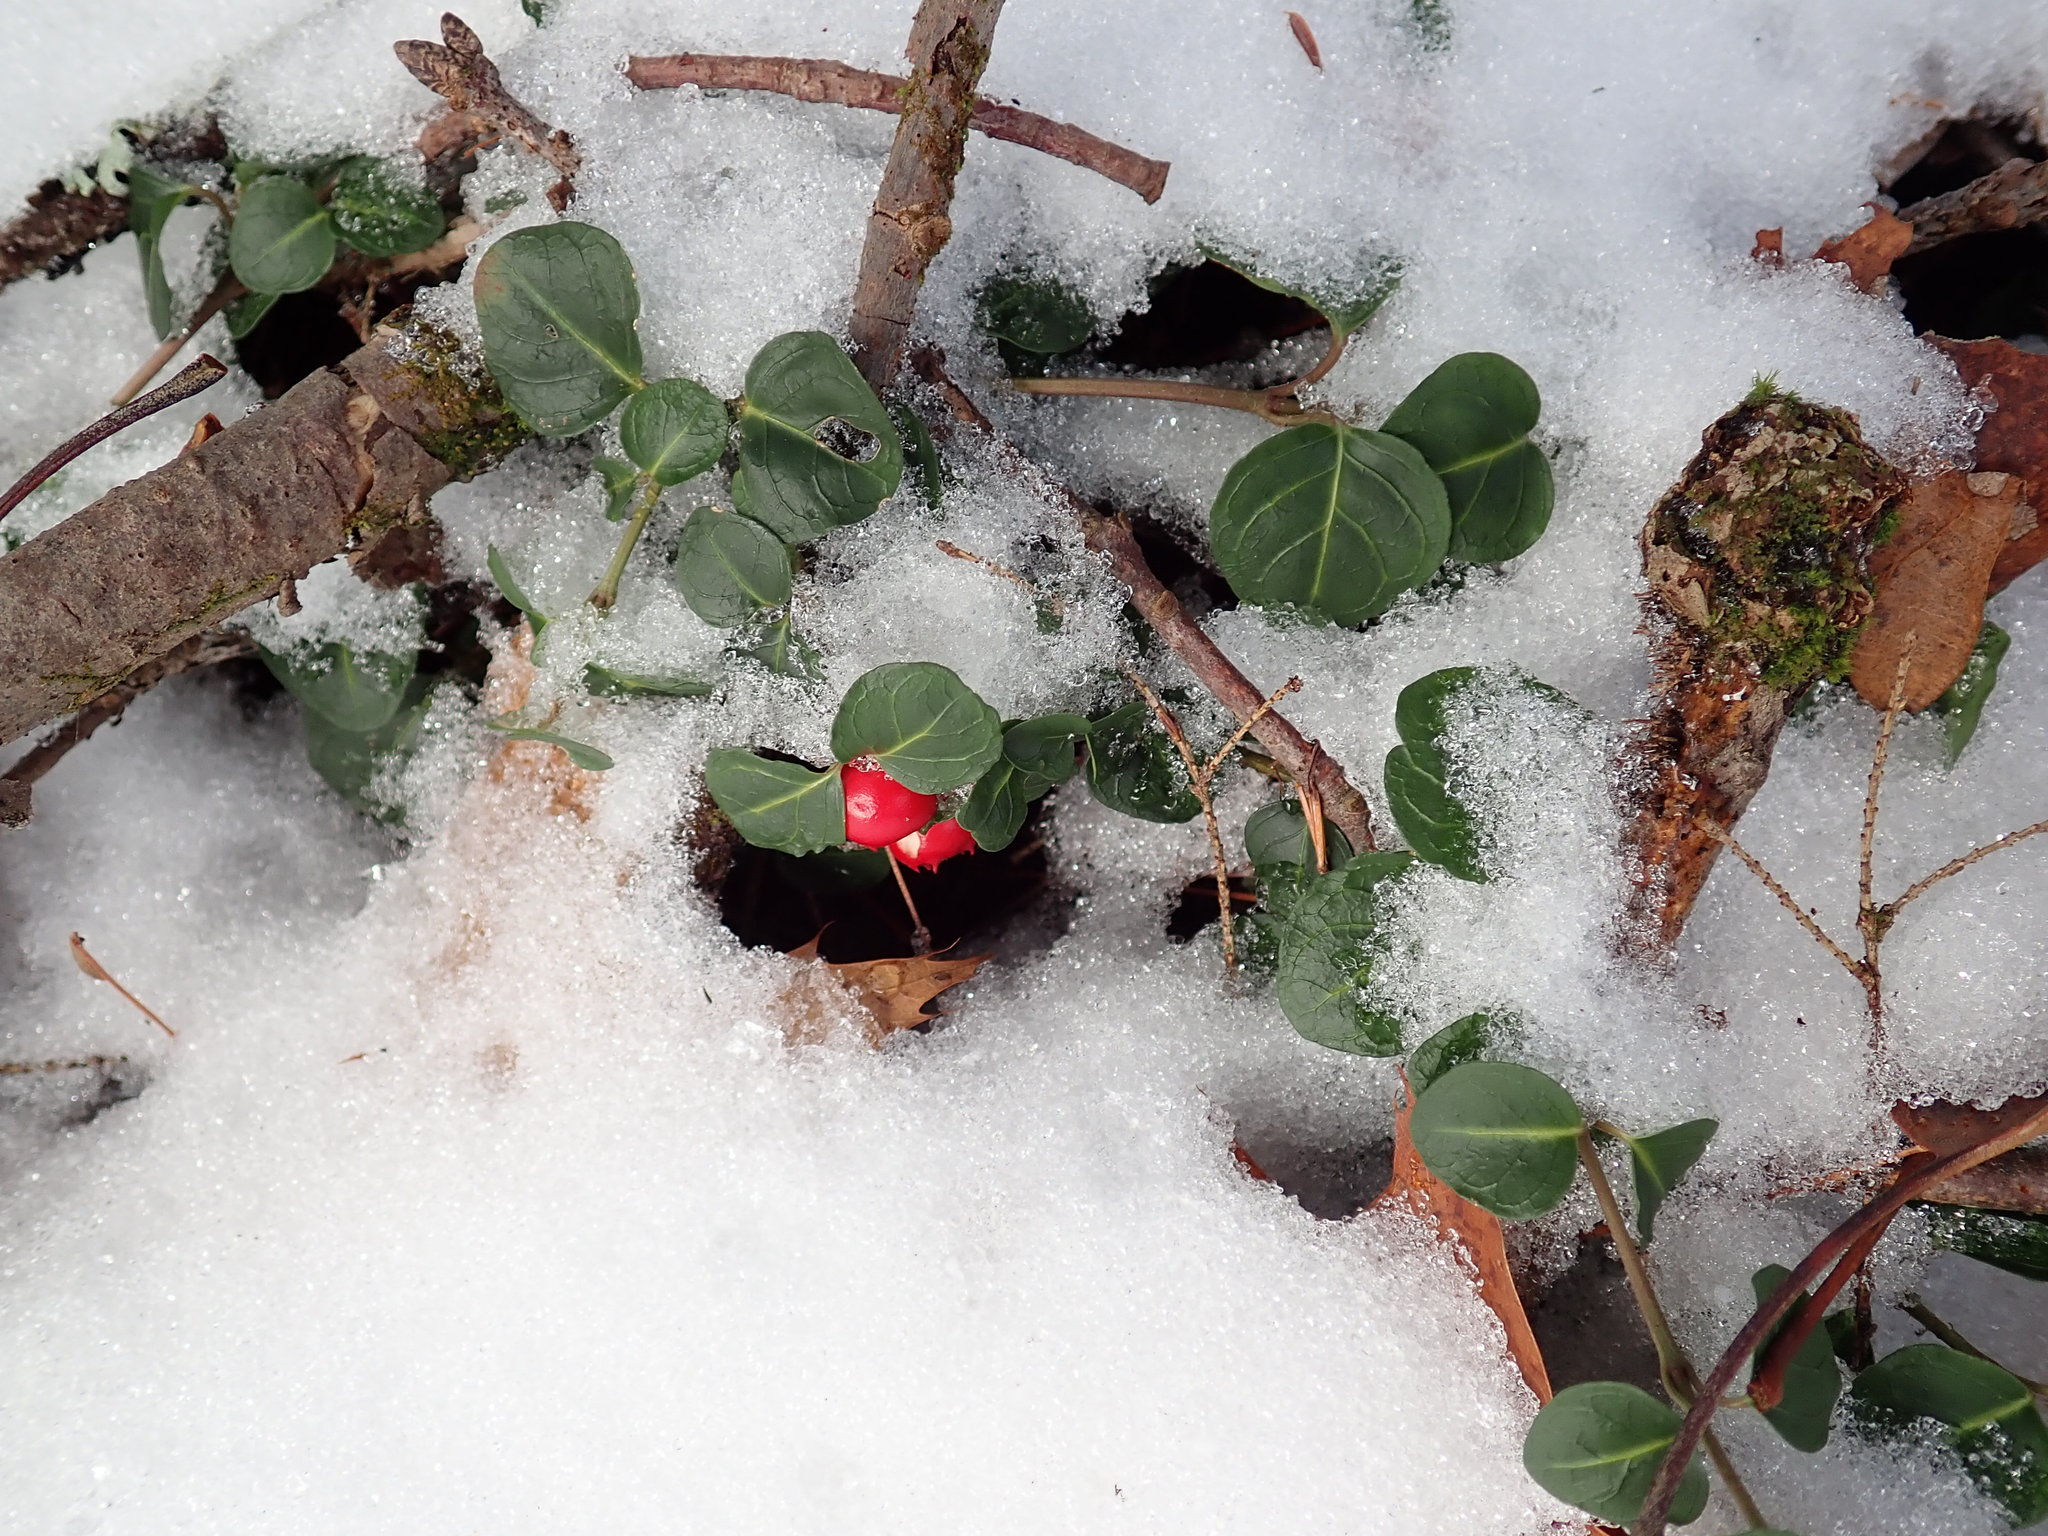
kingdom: Plantae
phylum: Tracheophyta
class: Magnoliopsida
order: Gentianales
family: Rubiaceae
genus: Mitchella
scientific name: Mitchella repens
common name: Partridge-berry
